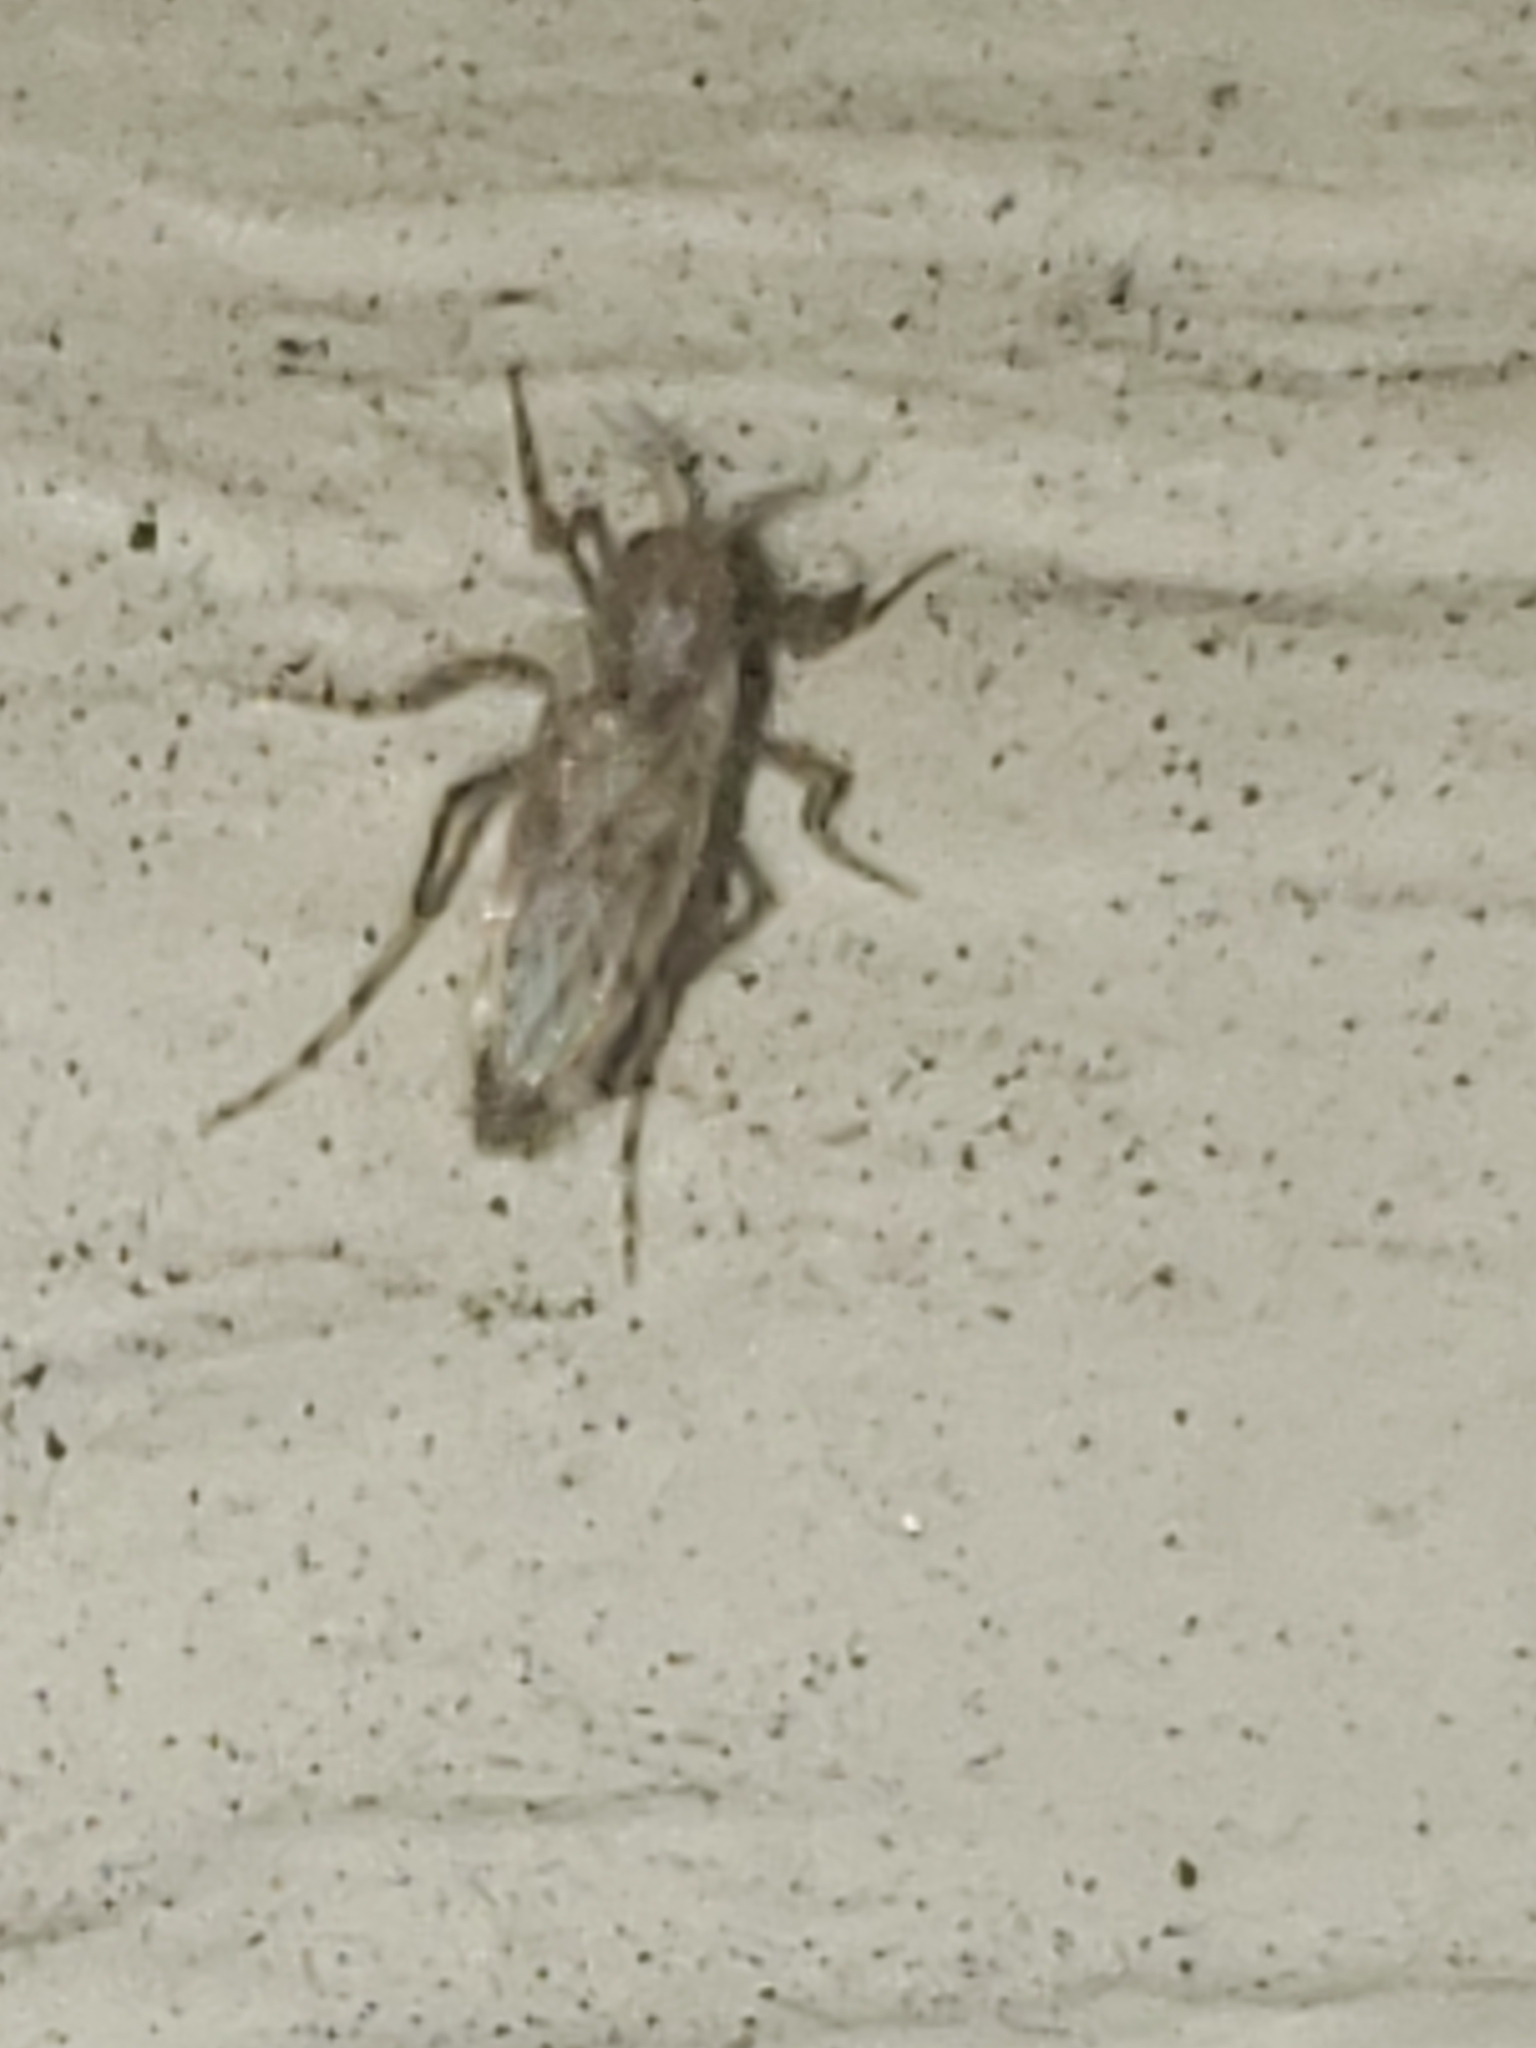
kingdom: Animalia
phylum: Arthropoda
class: Insecta
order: Diptera
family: Chaoboridae
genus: Chaoborus
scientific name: Chaoborus punctipennis
